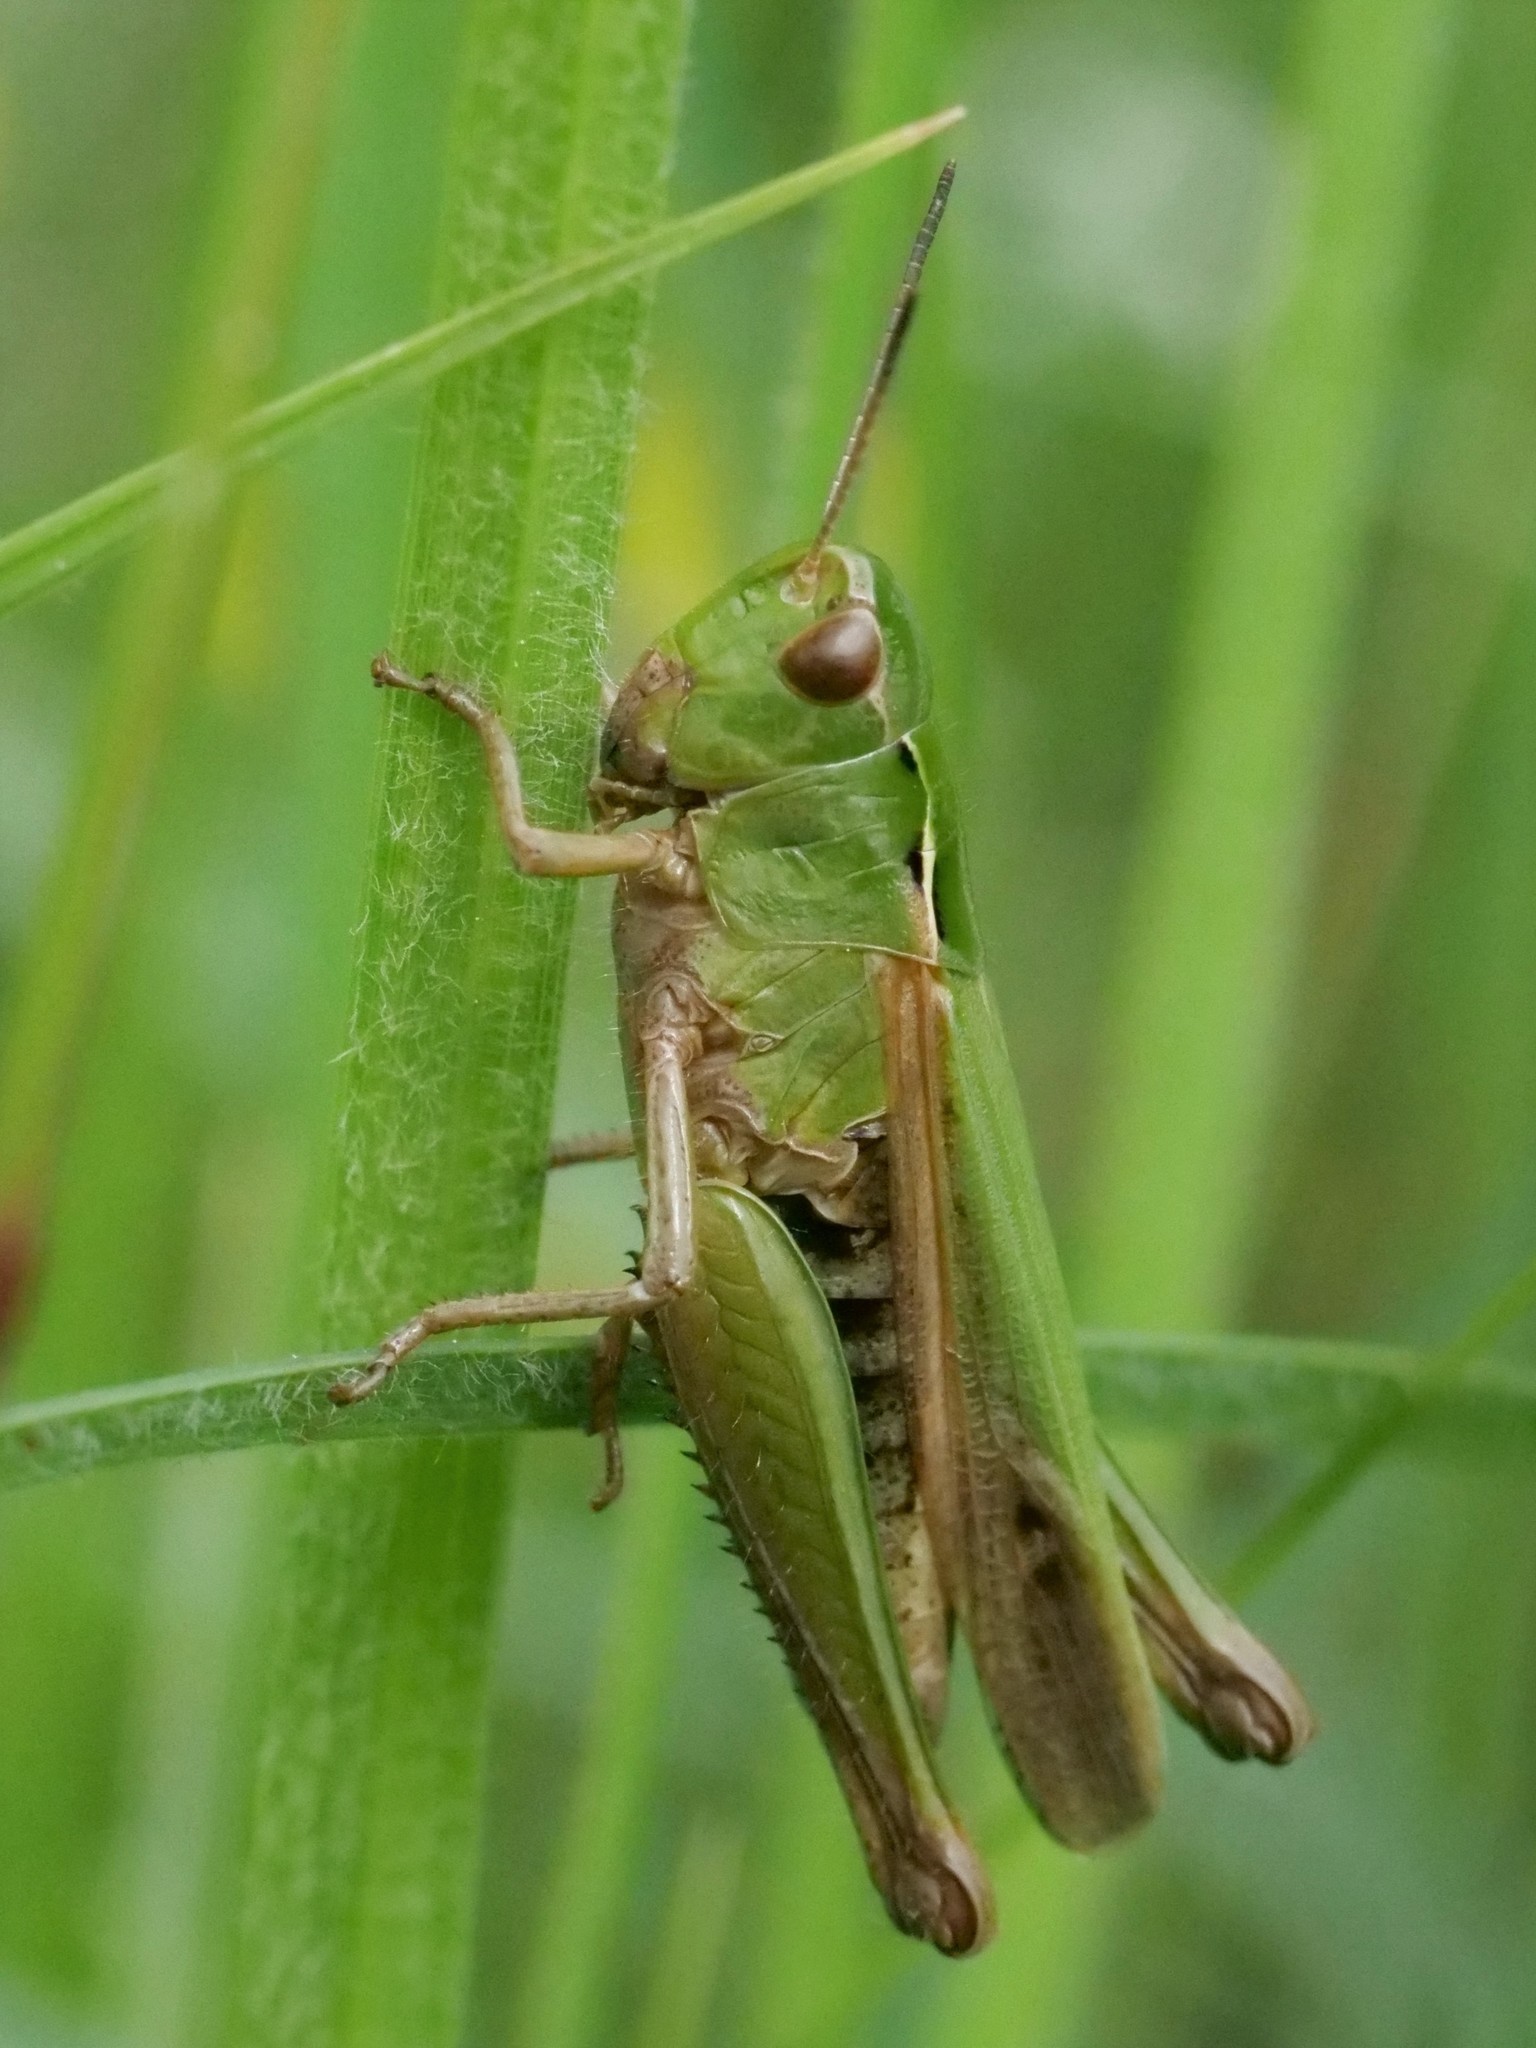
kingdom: Animalia
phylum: Arthropoda
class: Insecta
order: Orthoptera
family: Acrididae
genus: Omocestus
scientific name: Omocestus viridulus
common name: Common green grasshopper
